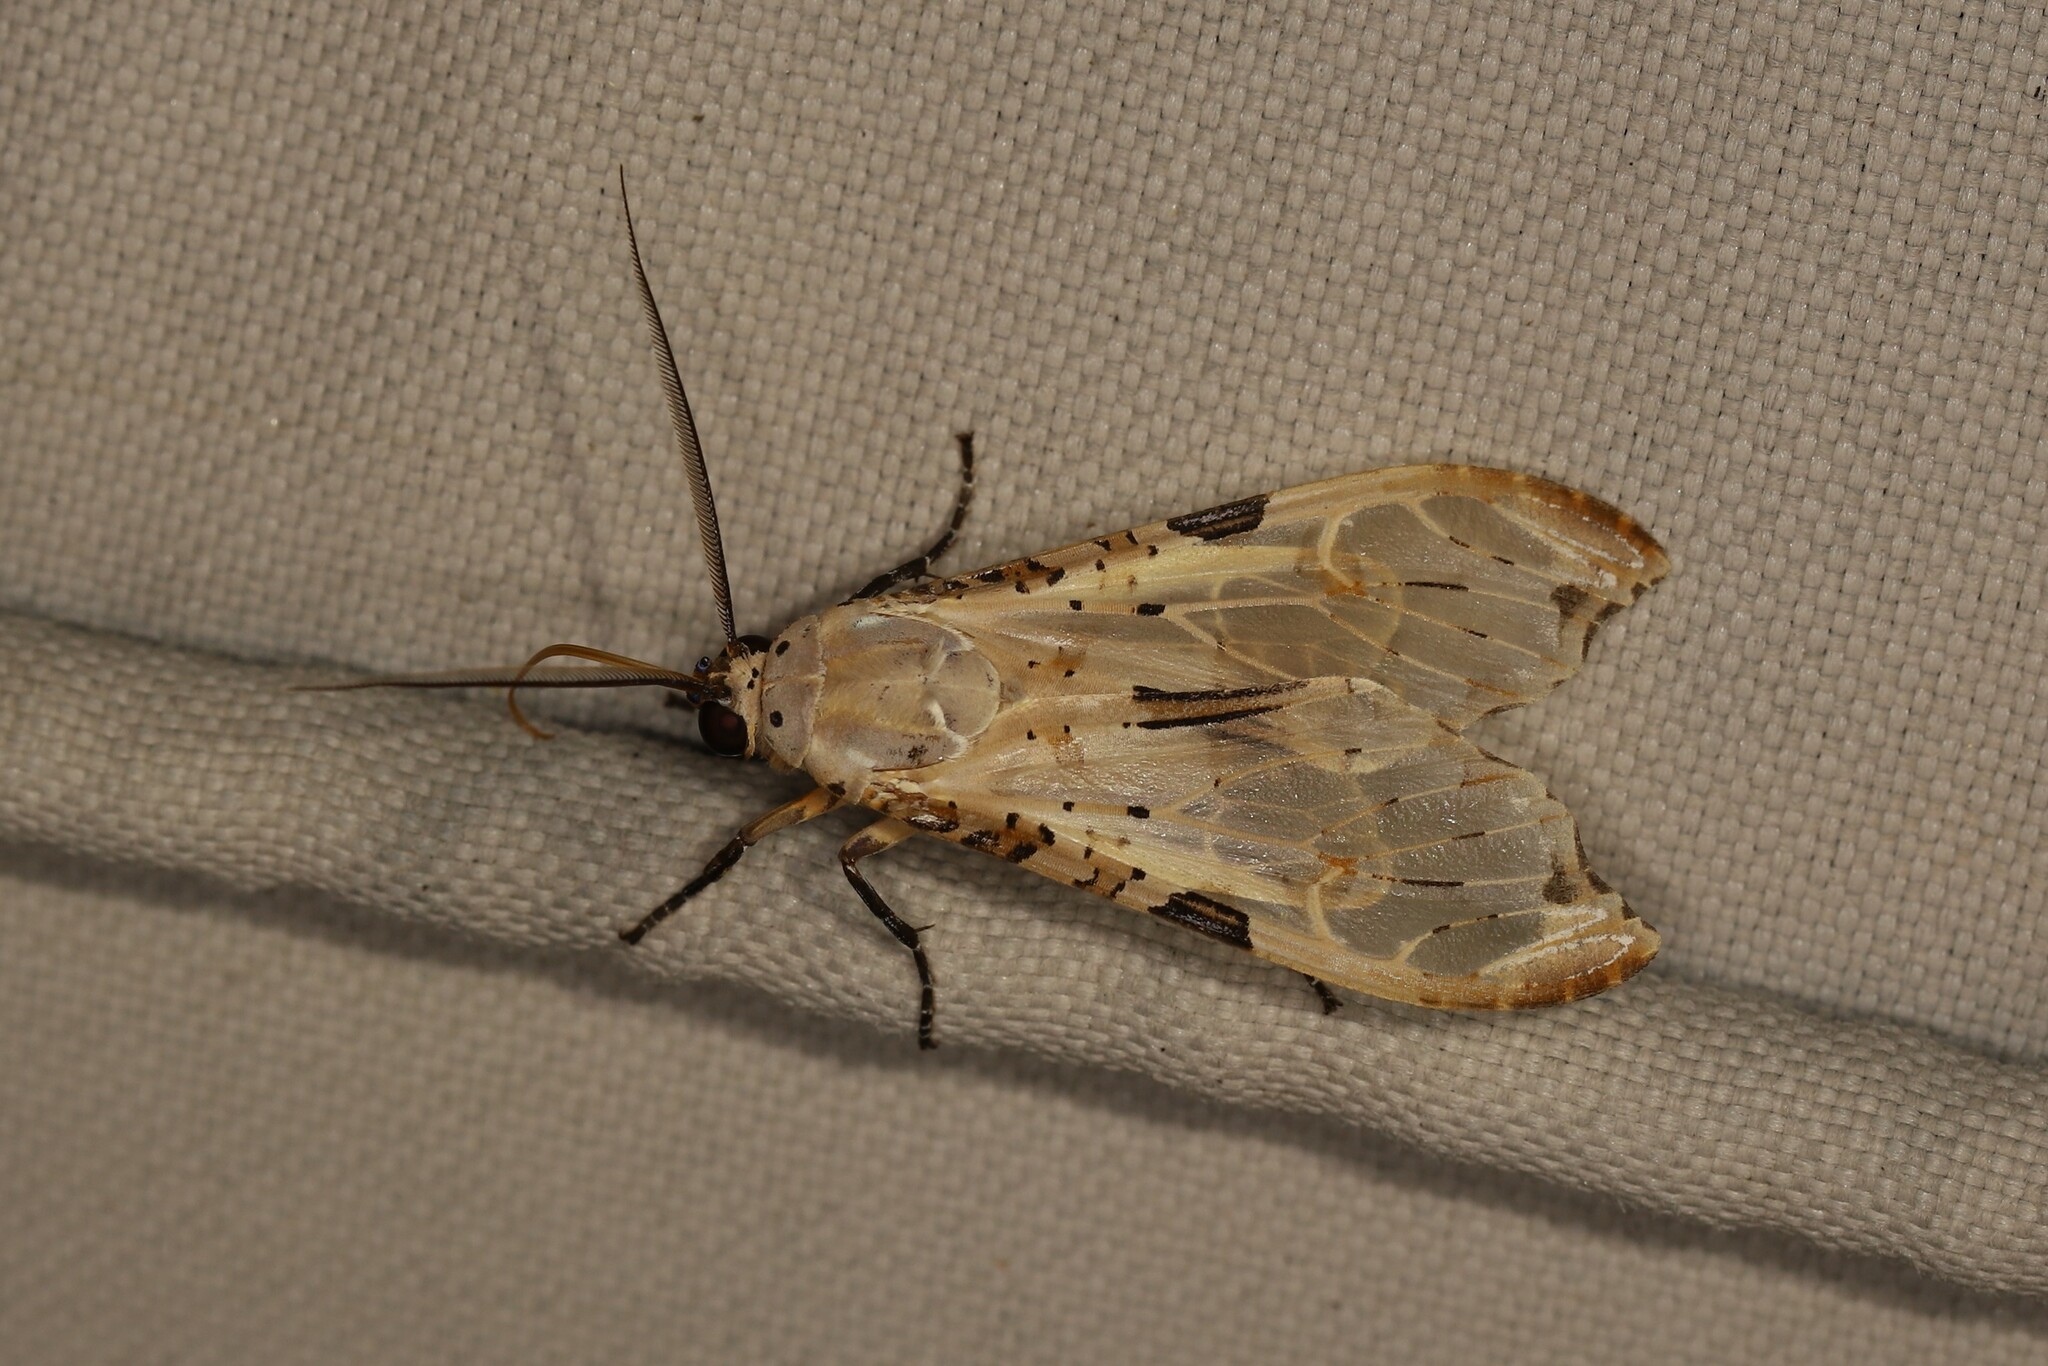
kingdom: Animalia
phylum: Arthropoda
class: Insecta
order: Lepidoptera
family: Erebidae
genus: Psychophasma
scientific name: Psychophasma erosa
